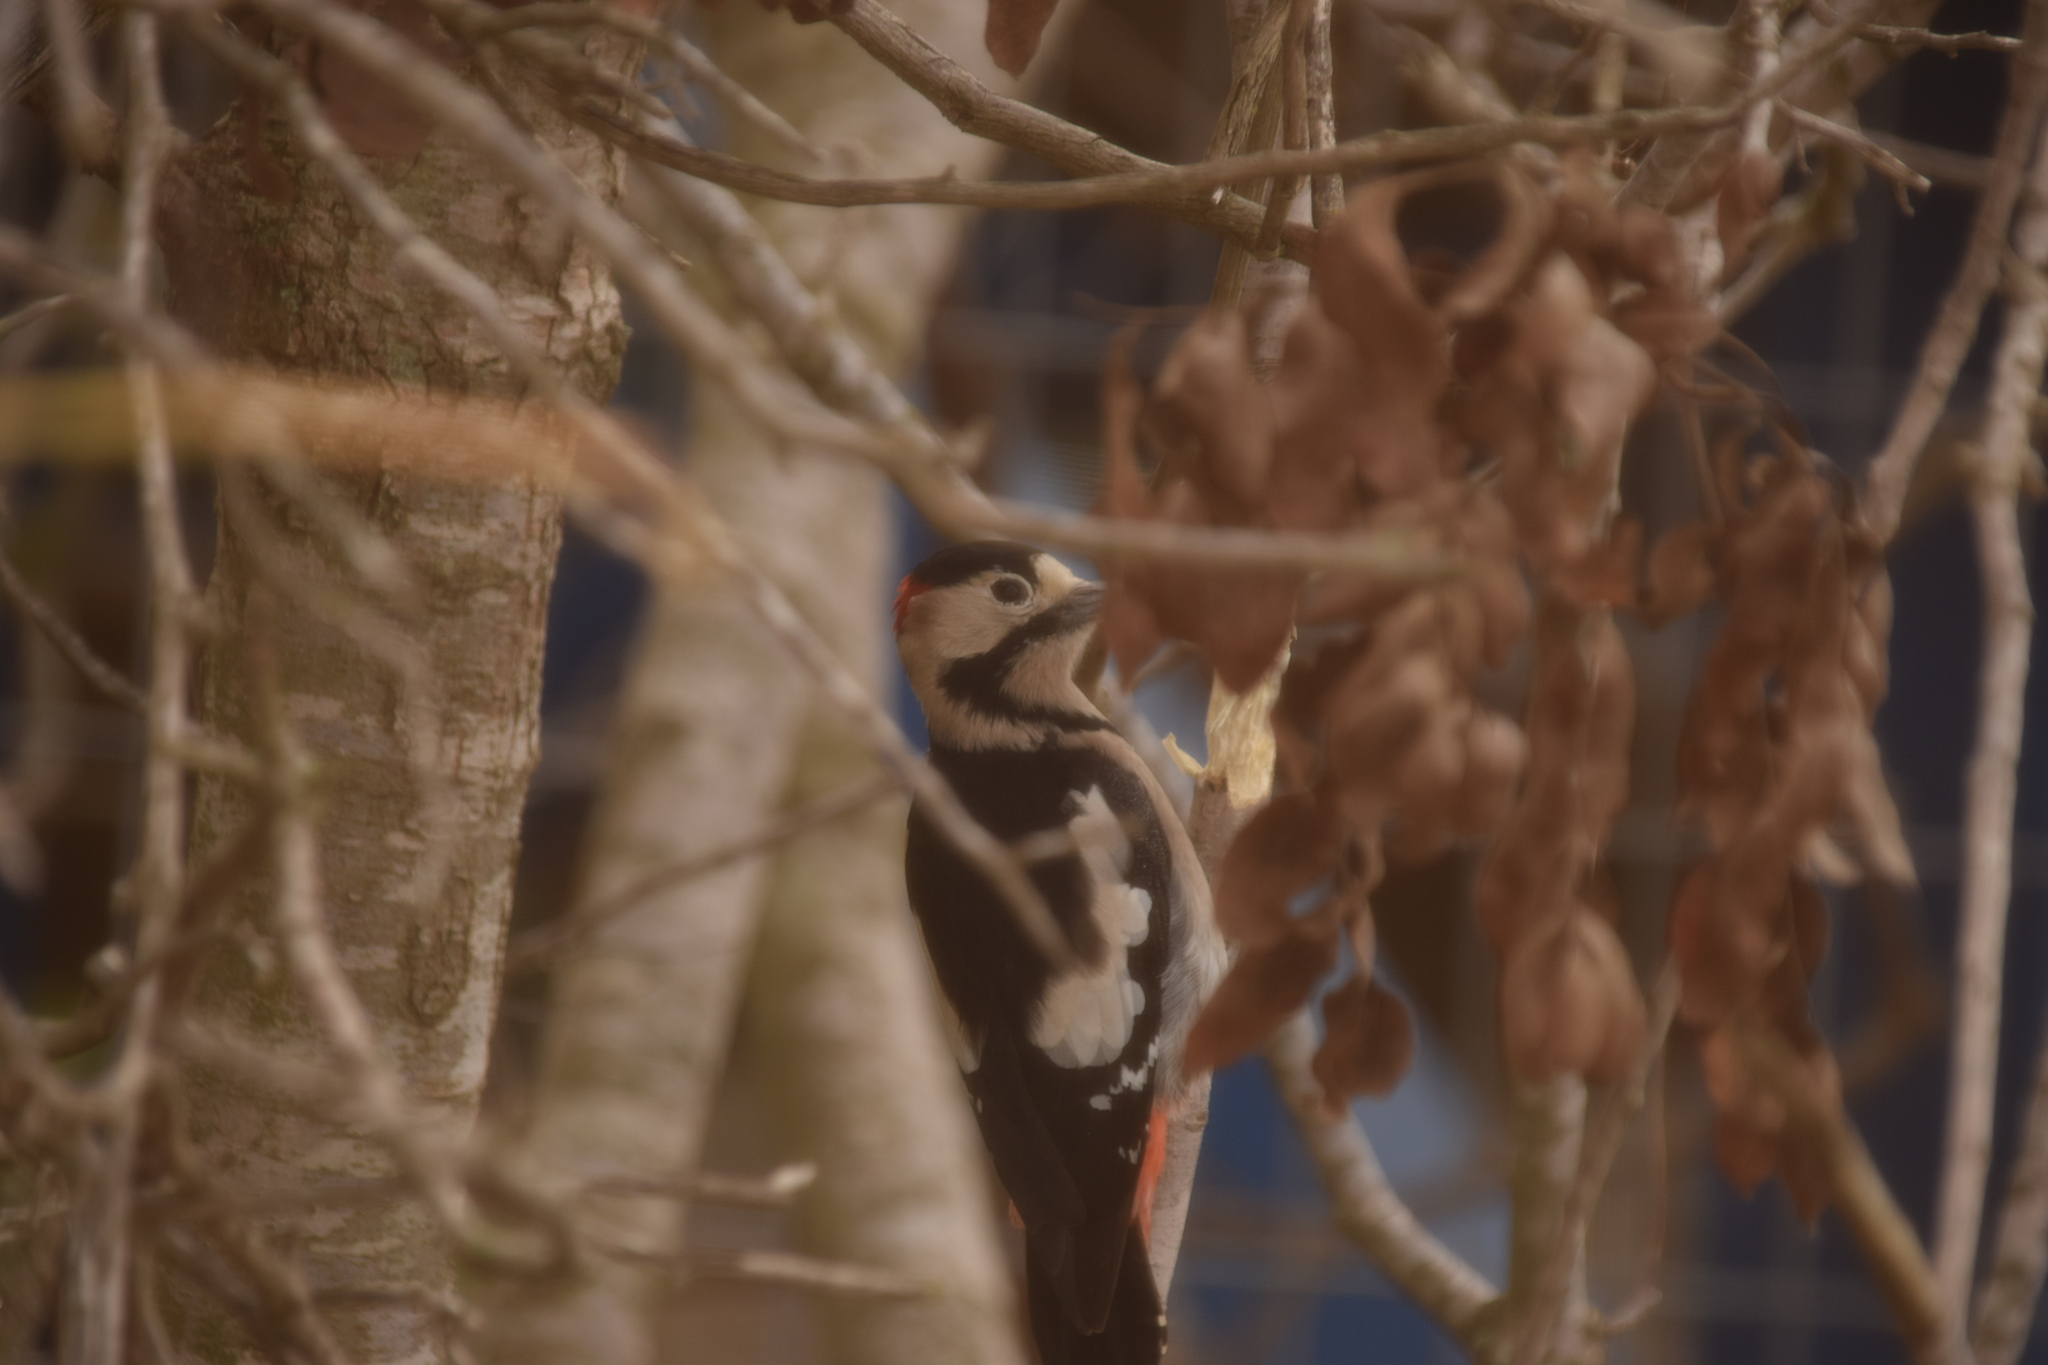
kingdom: Animalia
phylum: Chordata
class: Aves
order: Piciformes
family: Picidae
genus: Dendrocopos
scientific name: Dendrocopos syriacus
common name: Syrian woodpecker
